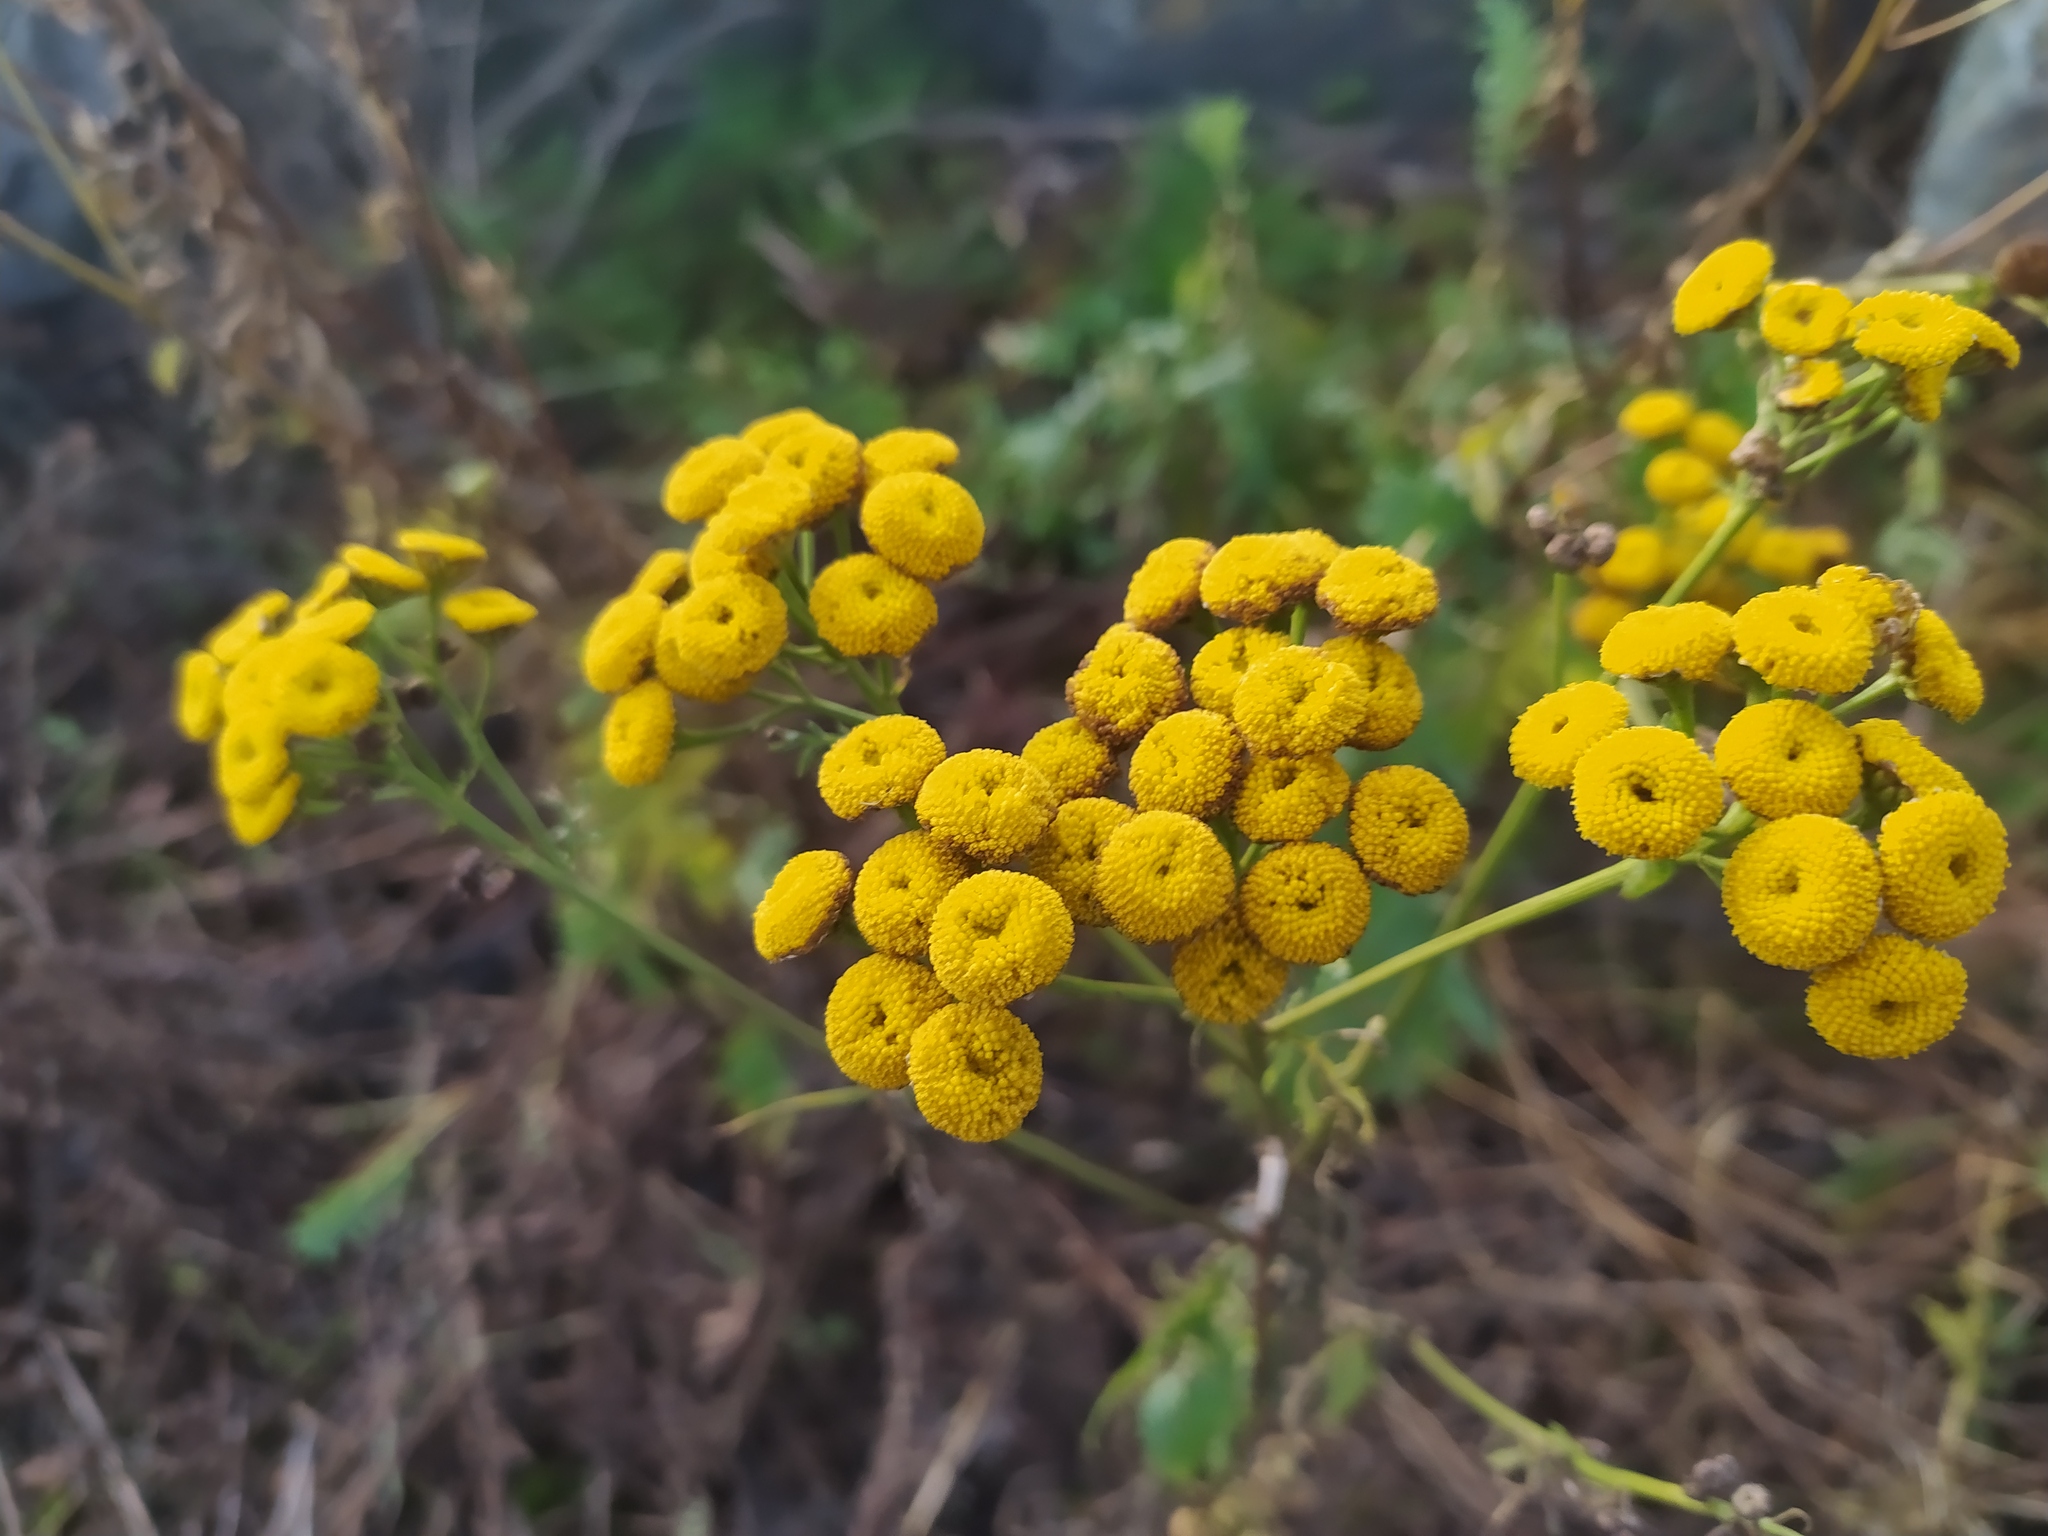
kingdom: Plantae
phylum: Tracheophyta
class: Magnoliopsida
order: Asterales
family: Asteraceae
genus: Tanacetum
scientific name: Tanacetum vulgare
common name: Common tansy
